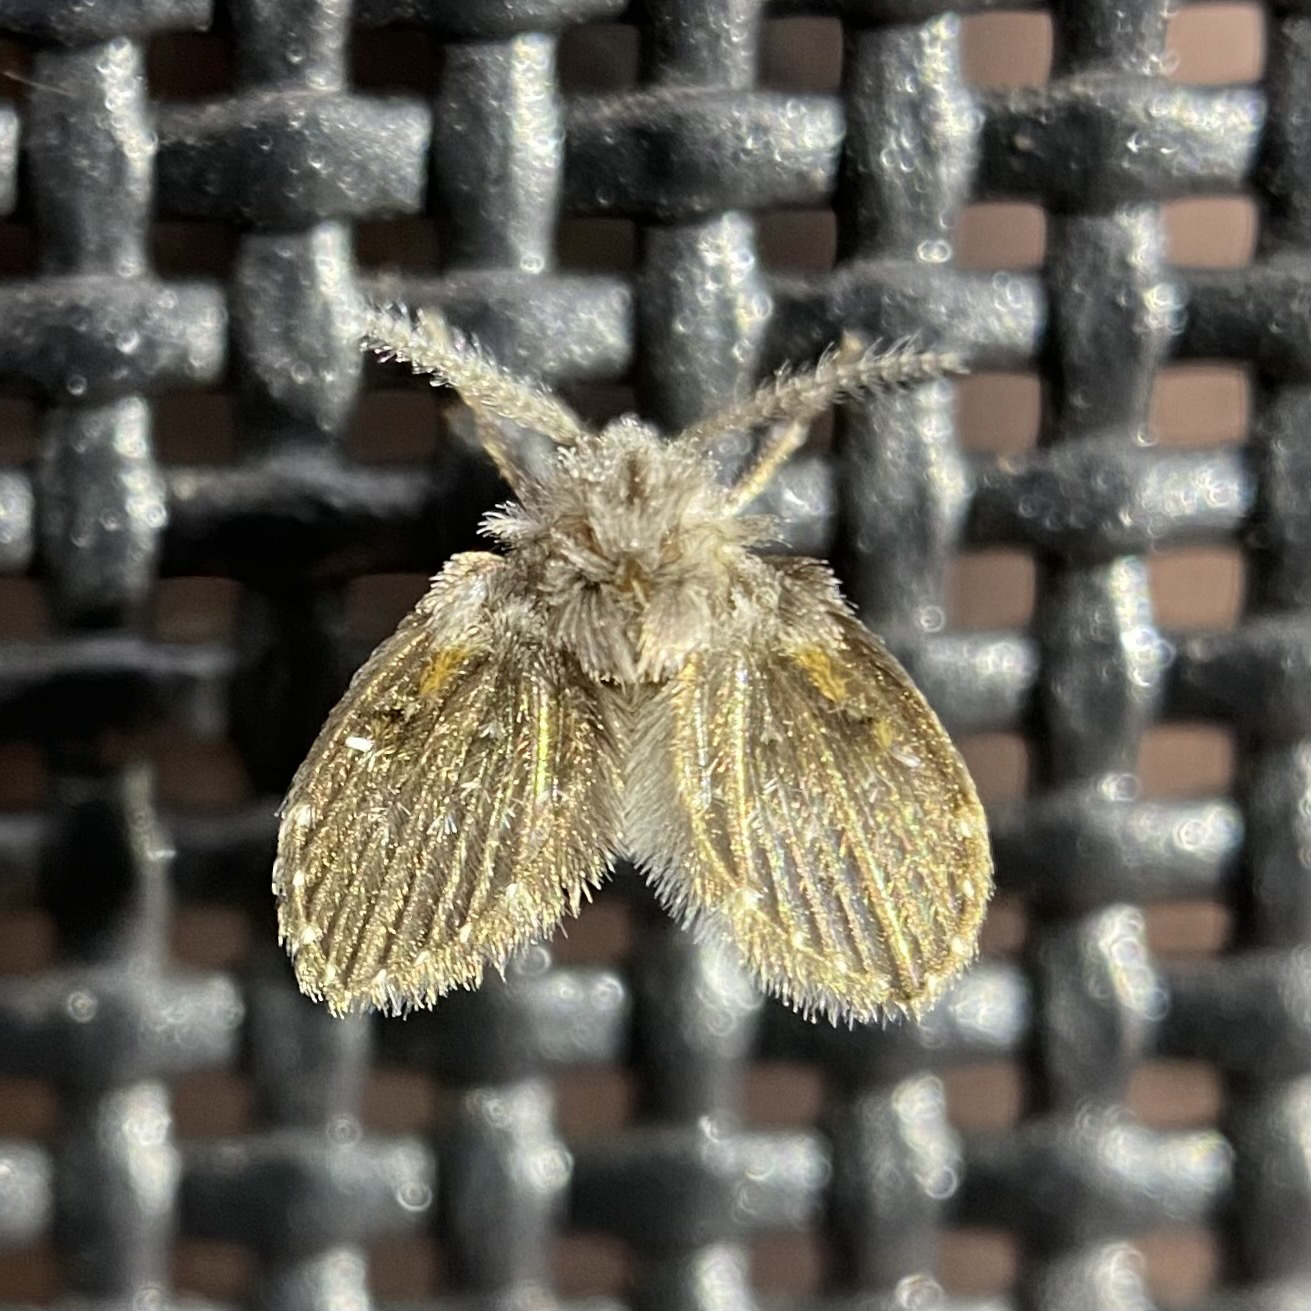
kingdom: Animalia
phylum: Arthropoda
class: Insecta
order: Diptera
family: Psychodidae
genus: Clogmia
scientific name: Clogmia albipunctatus
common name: White-spotted moth fly
